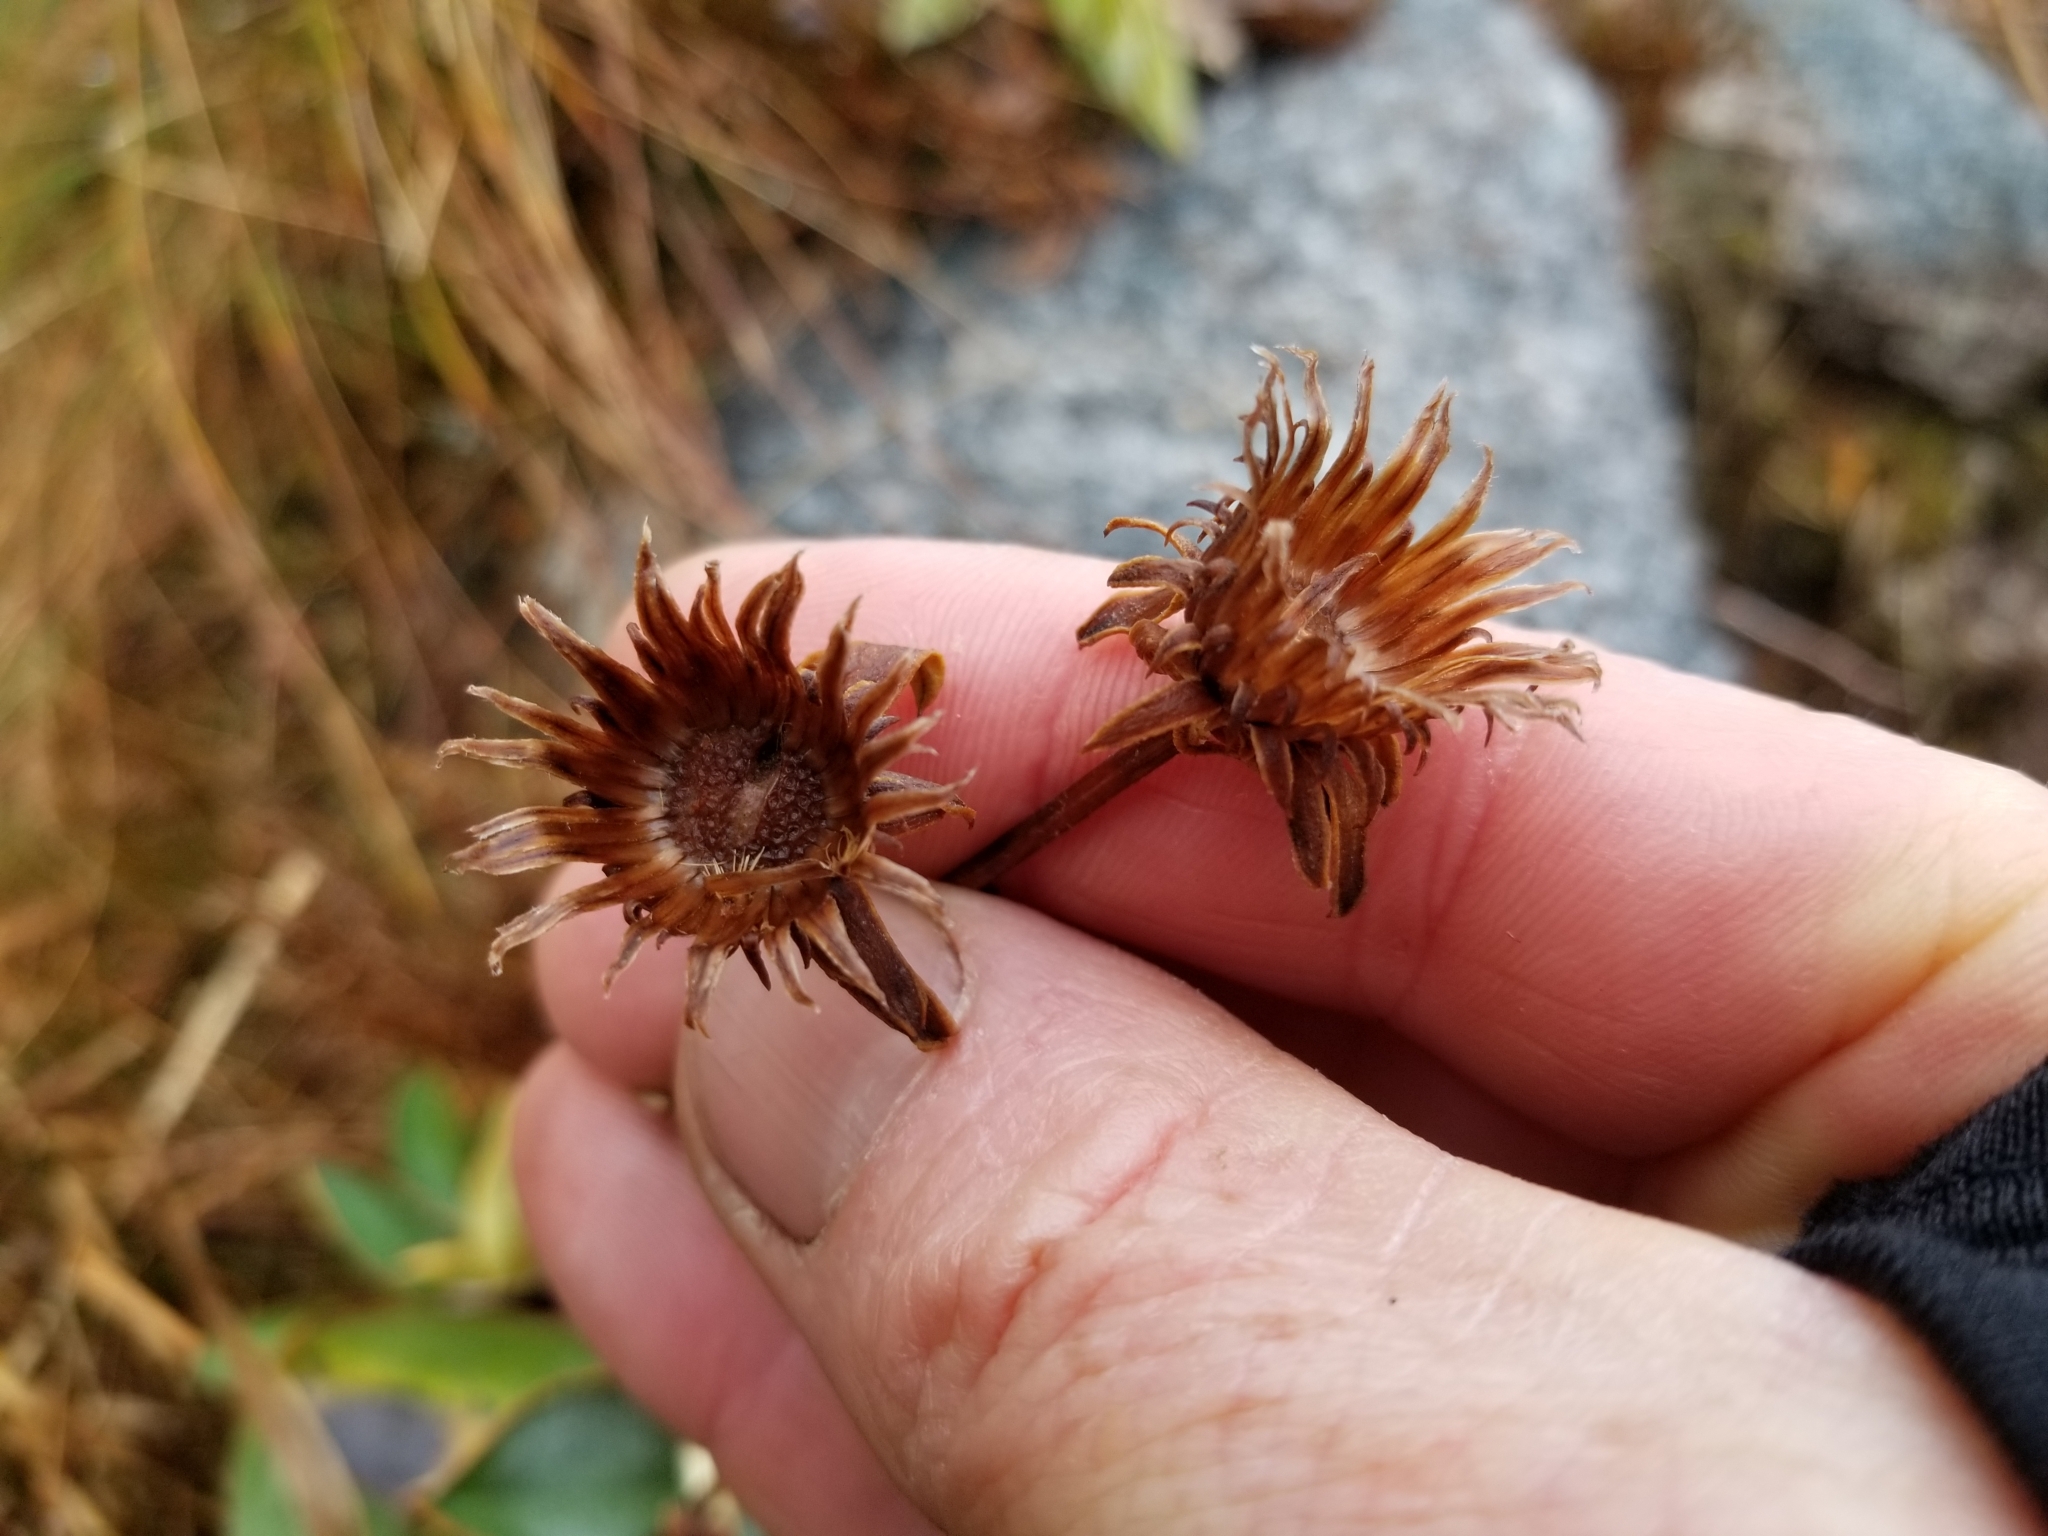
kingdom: Plantae
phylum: Tracheophyta
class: Magnoliopsida
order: Asterales
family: Asteraceae
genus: Celmisia
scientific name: Celmisia dallii
